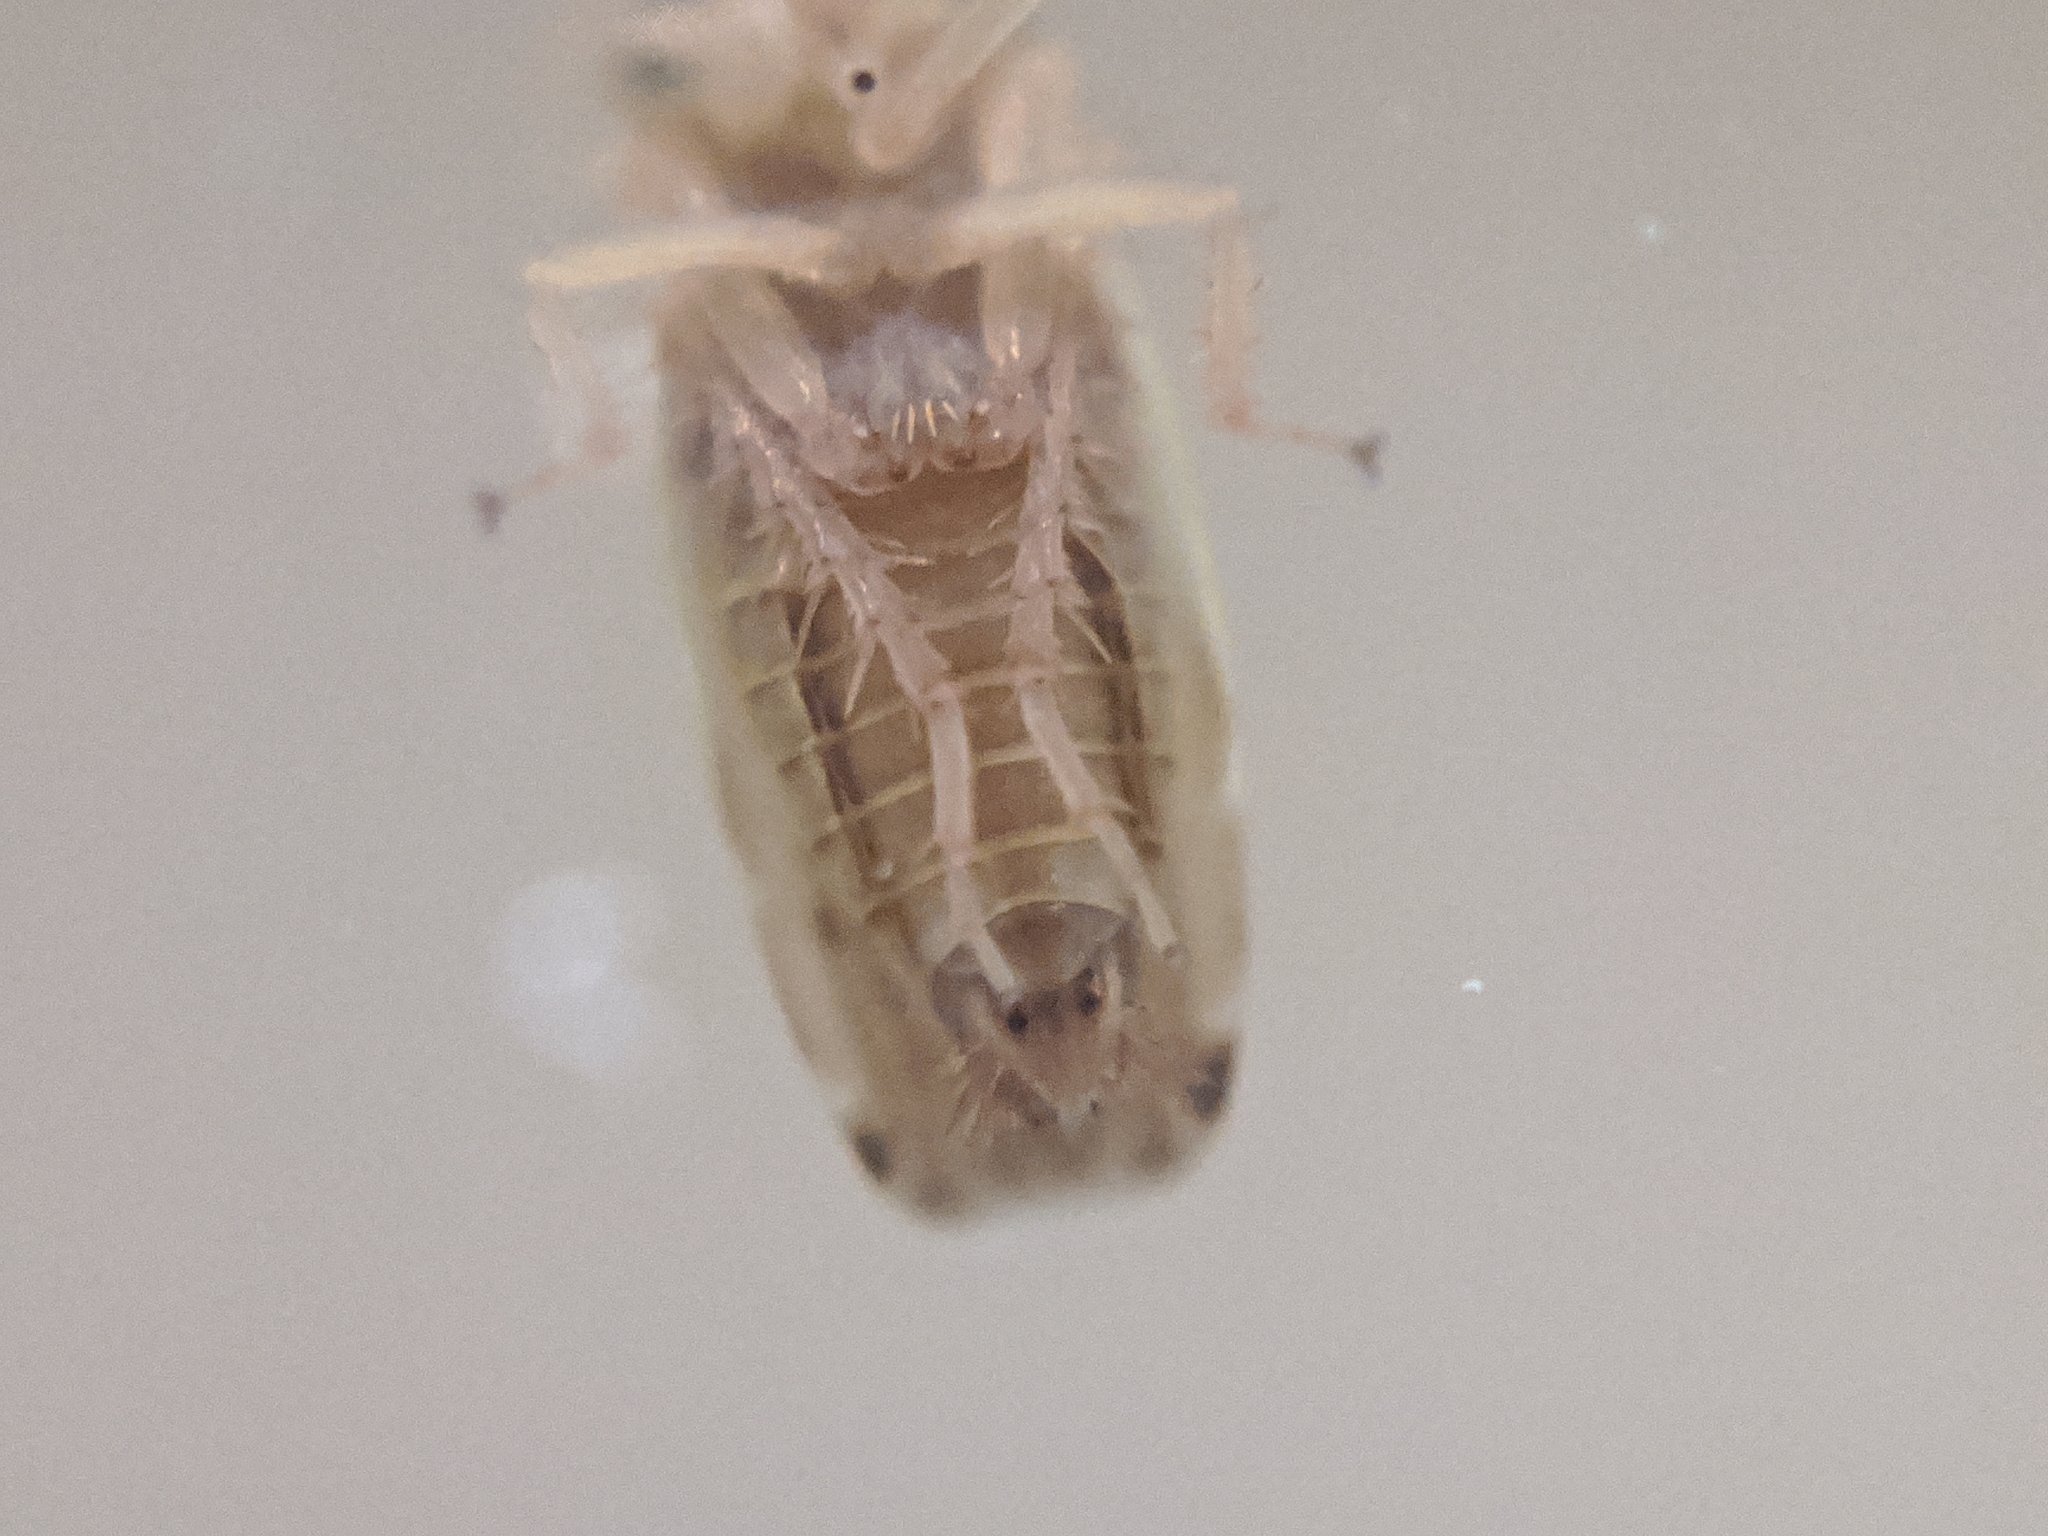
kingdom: Animalia
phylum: Arthropoda
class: Insecta
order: Hemiptera
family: Cicadellidae
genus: Planicephalus
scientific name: Planicephalus
